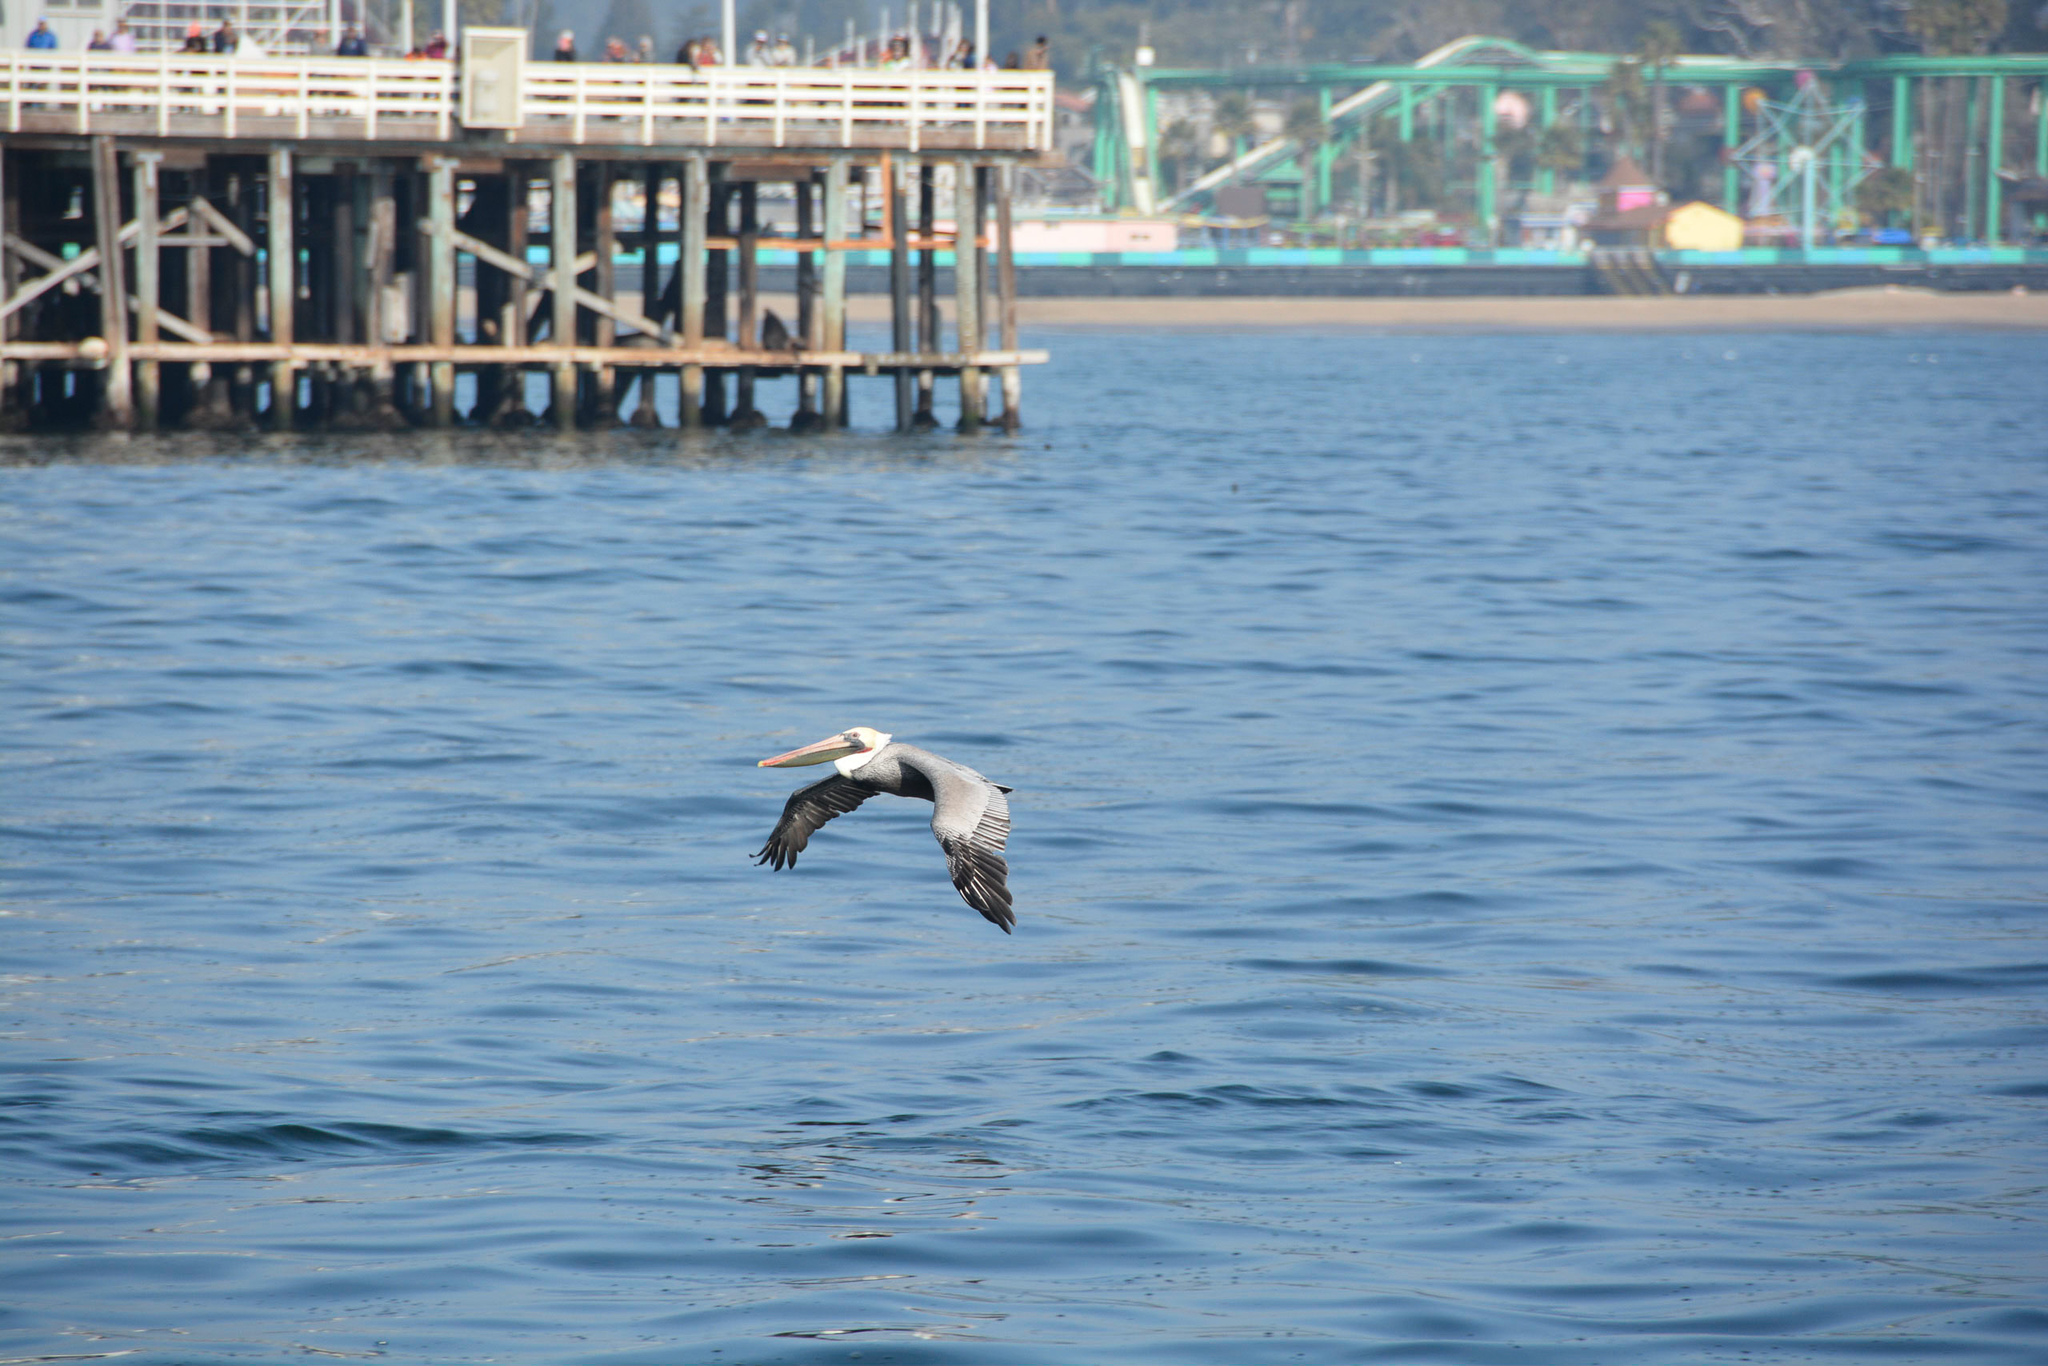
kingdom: Animalia
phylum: Chordata
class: Aves
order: Pelecaniformes
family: Pelecanidae
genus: Pelecanus
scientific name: Pelecanus occidentalis
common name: Brown pelican
